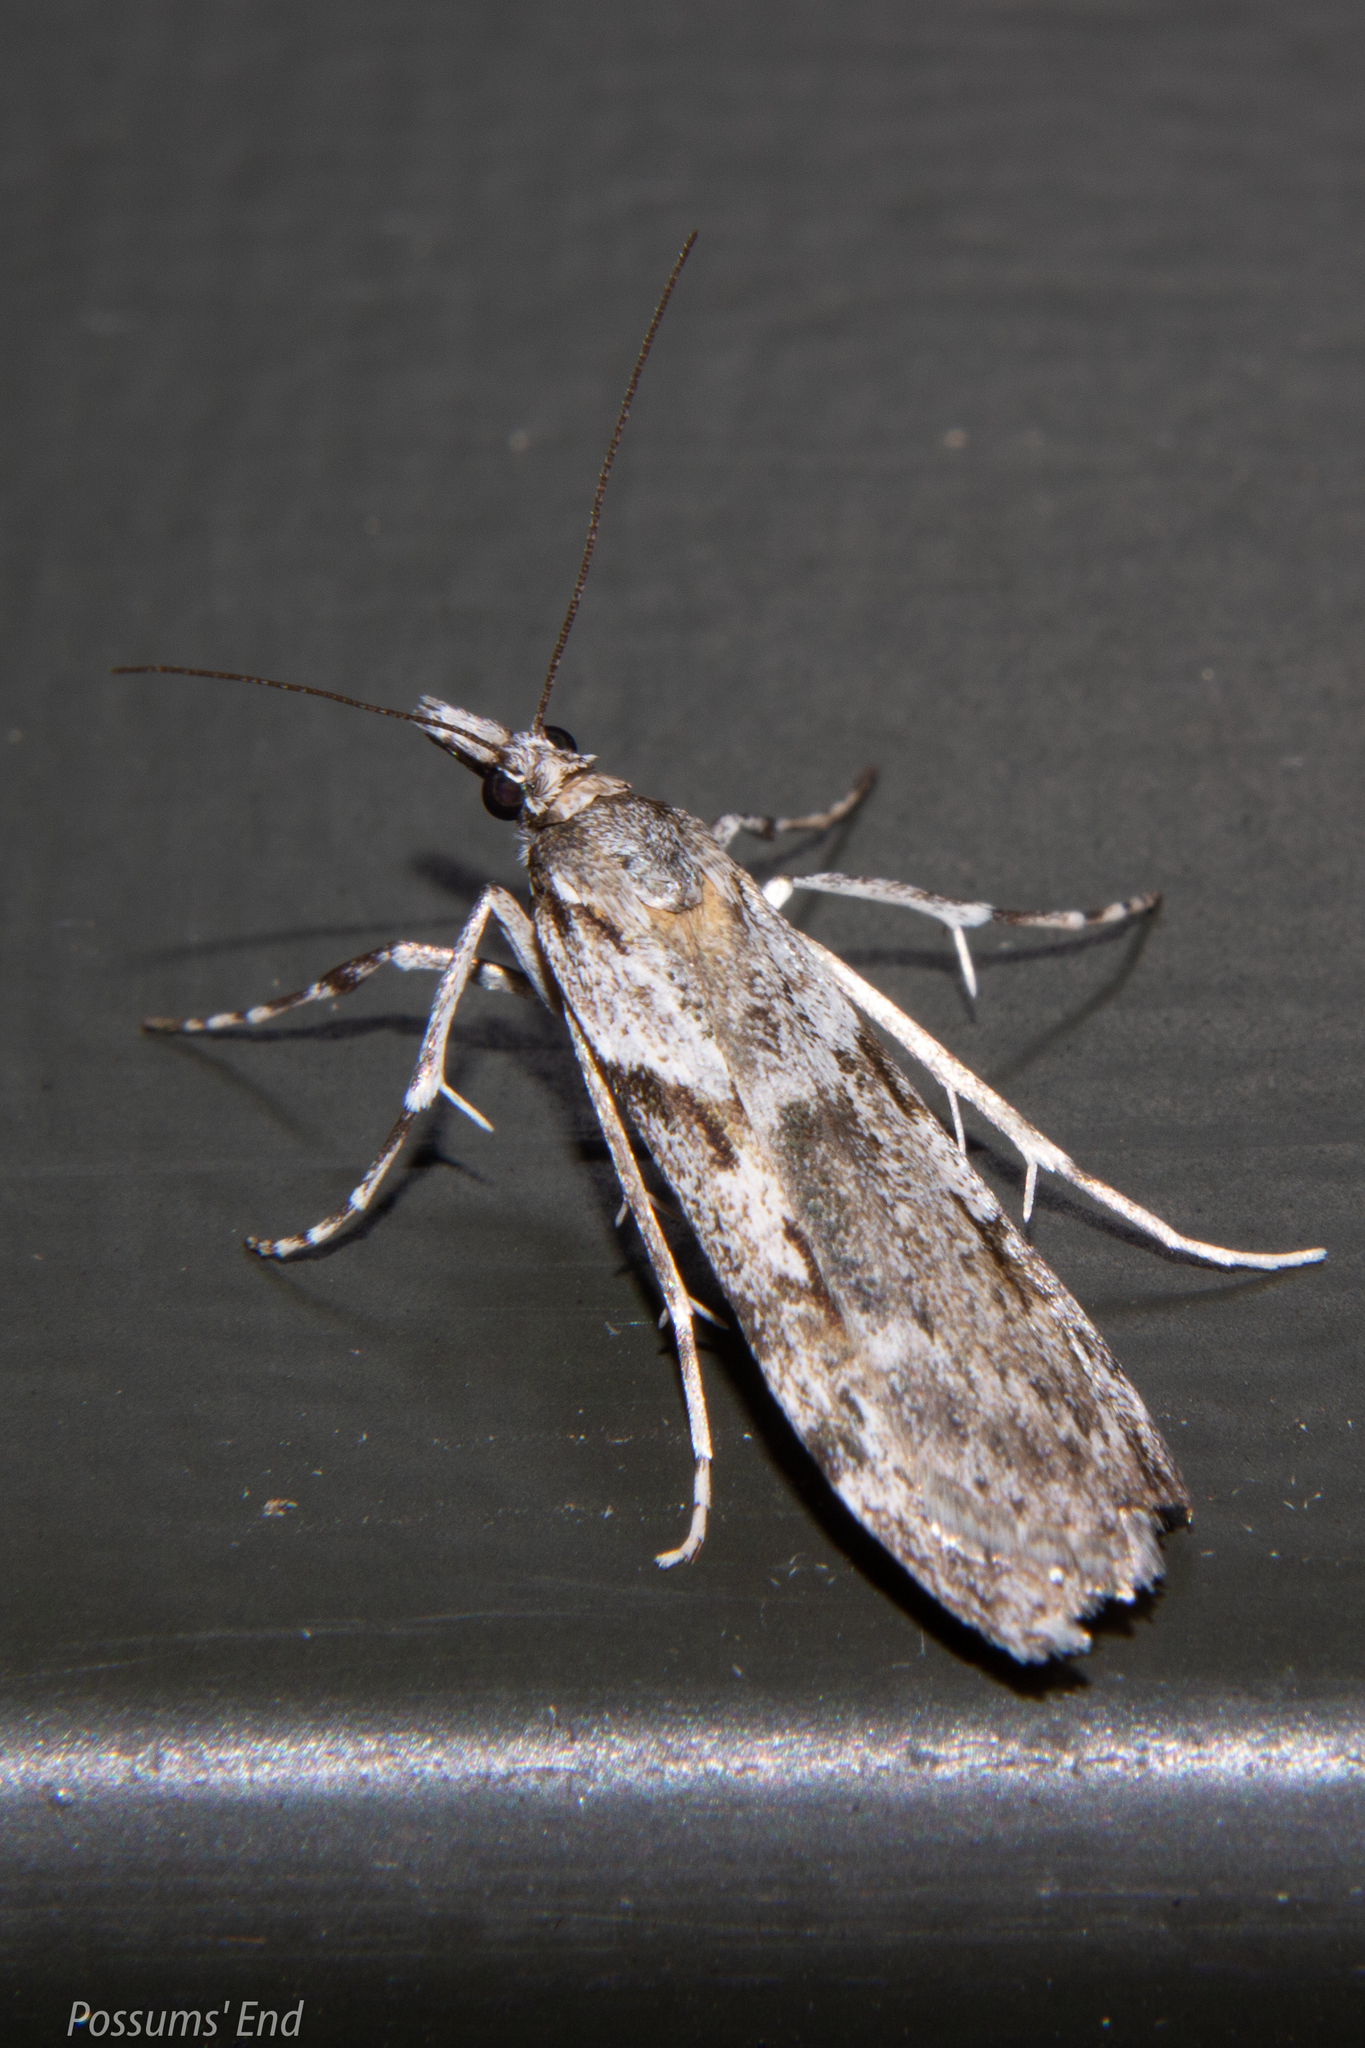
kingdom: Animalia
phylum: Arthropoda
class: Insecta
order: Lepidoptera
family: Crambidae
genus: Scoparia
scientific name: Scoparia halopis
